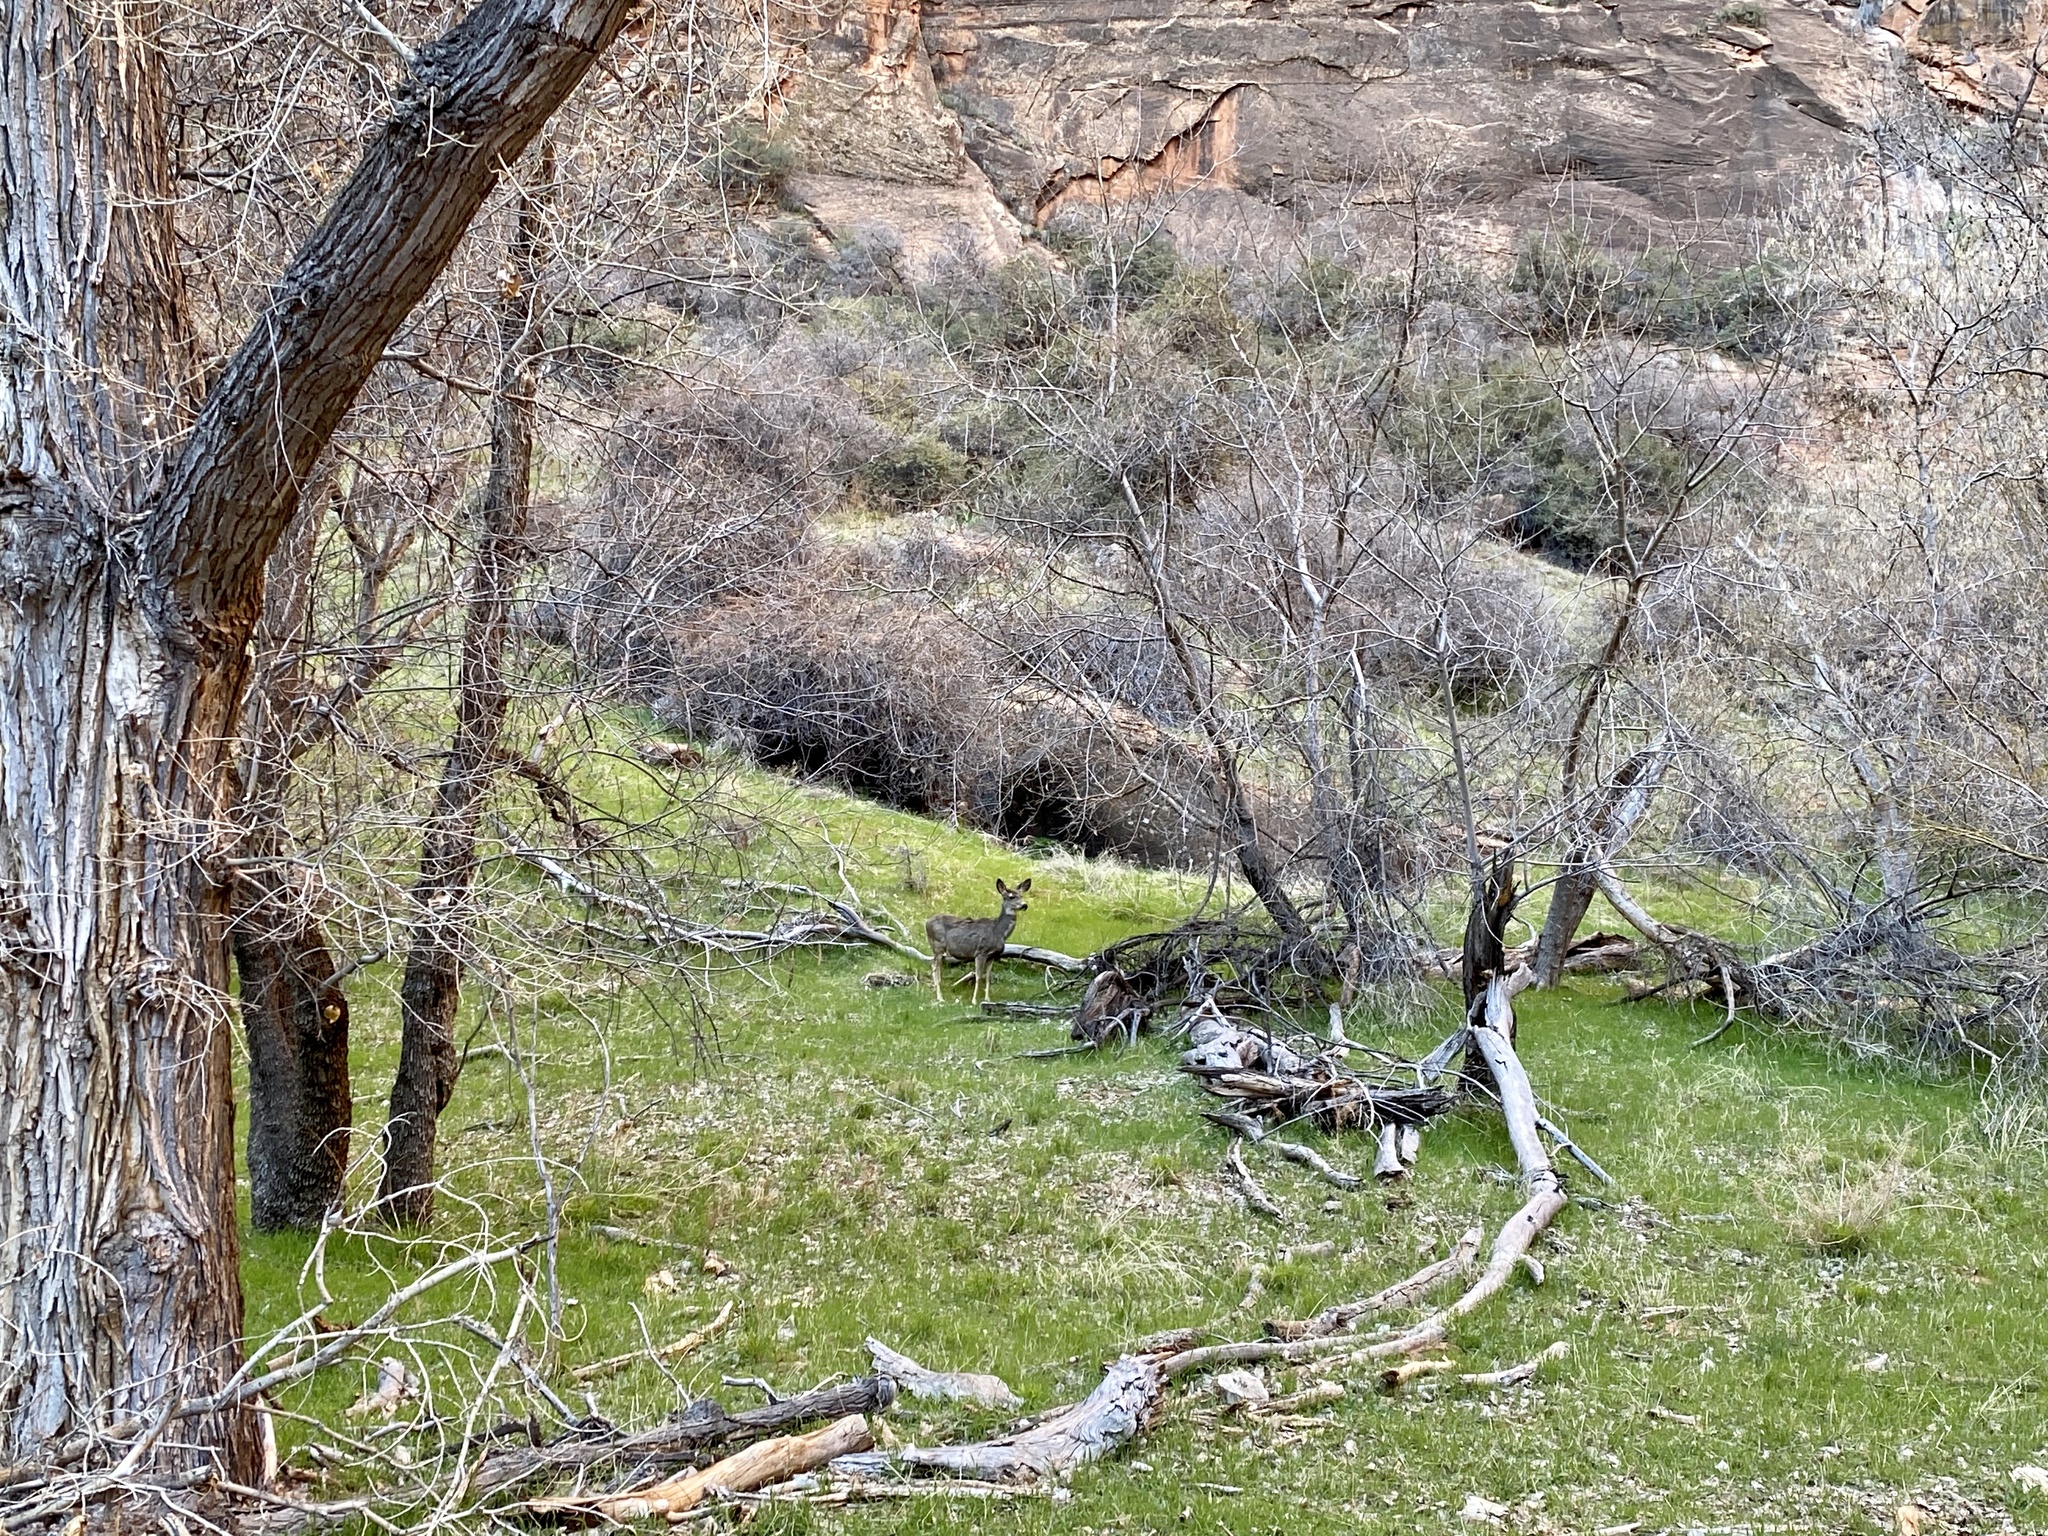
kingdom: Animalia
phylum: Chordata
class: Mammalia
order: Artiodactyla
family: Cervidae
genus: Odocoileus
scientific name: Odocoileus hemionus
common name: Mule deer
